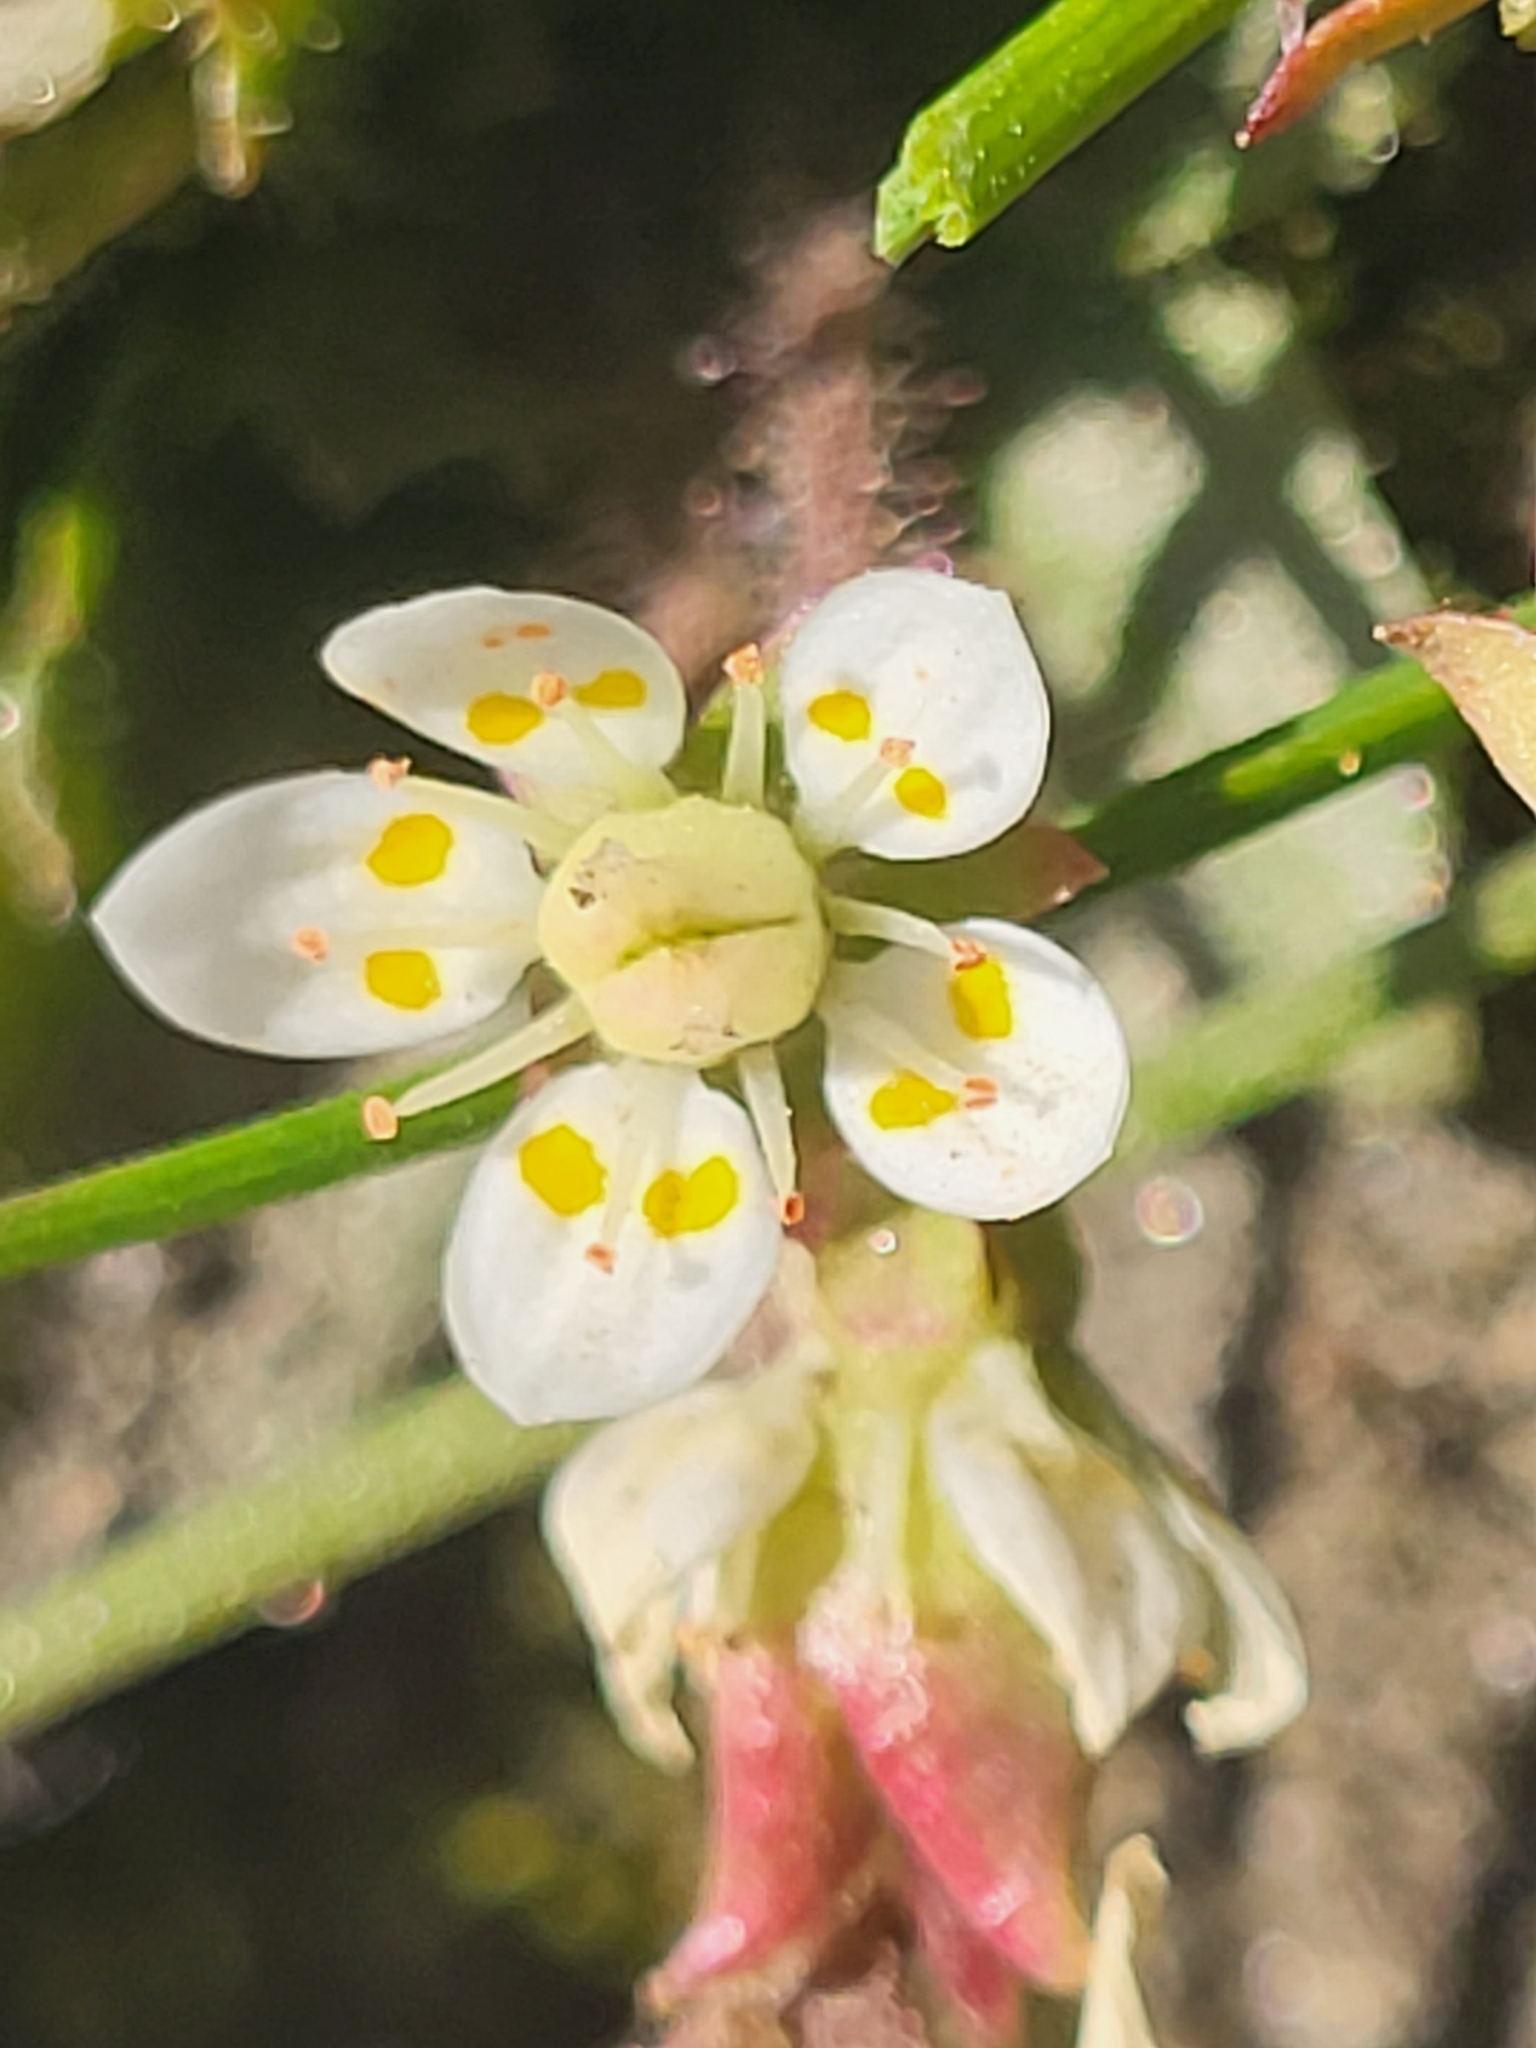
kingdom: Plantae
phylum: Tracheophyta
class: Magnoliopsida
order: Saxifragales
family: Saxifragaceae
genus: Micranthes
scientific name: Micranthes stellaris
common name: Starry saxifrage
